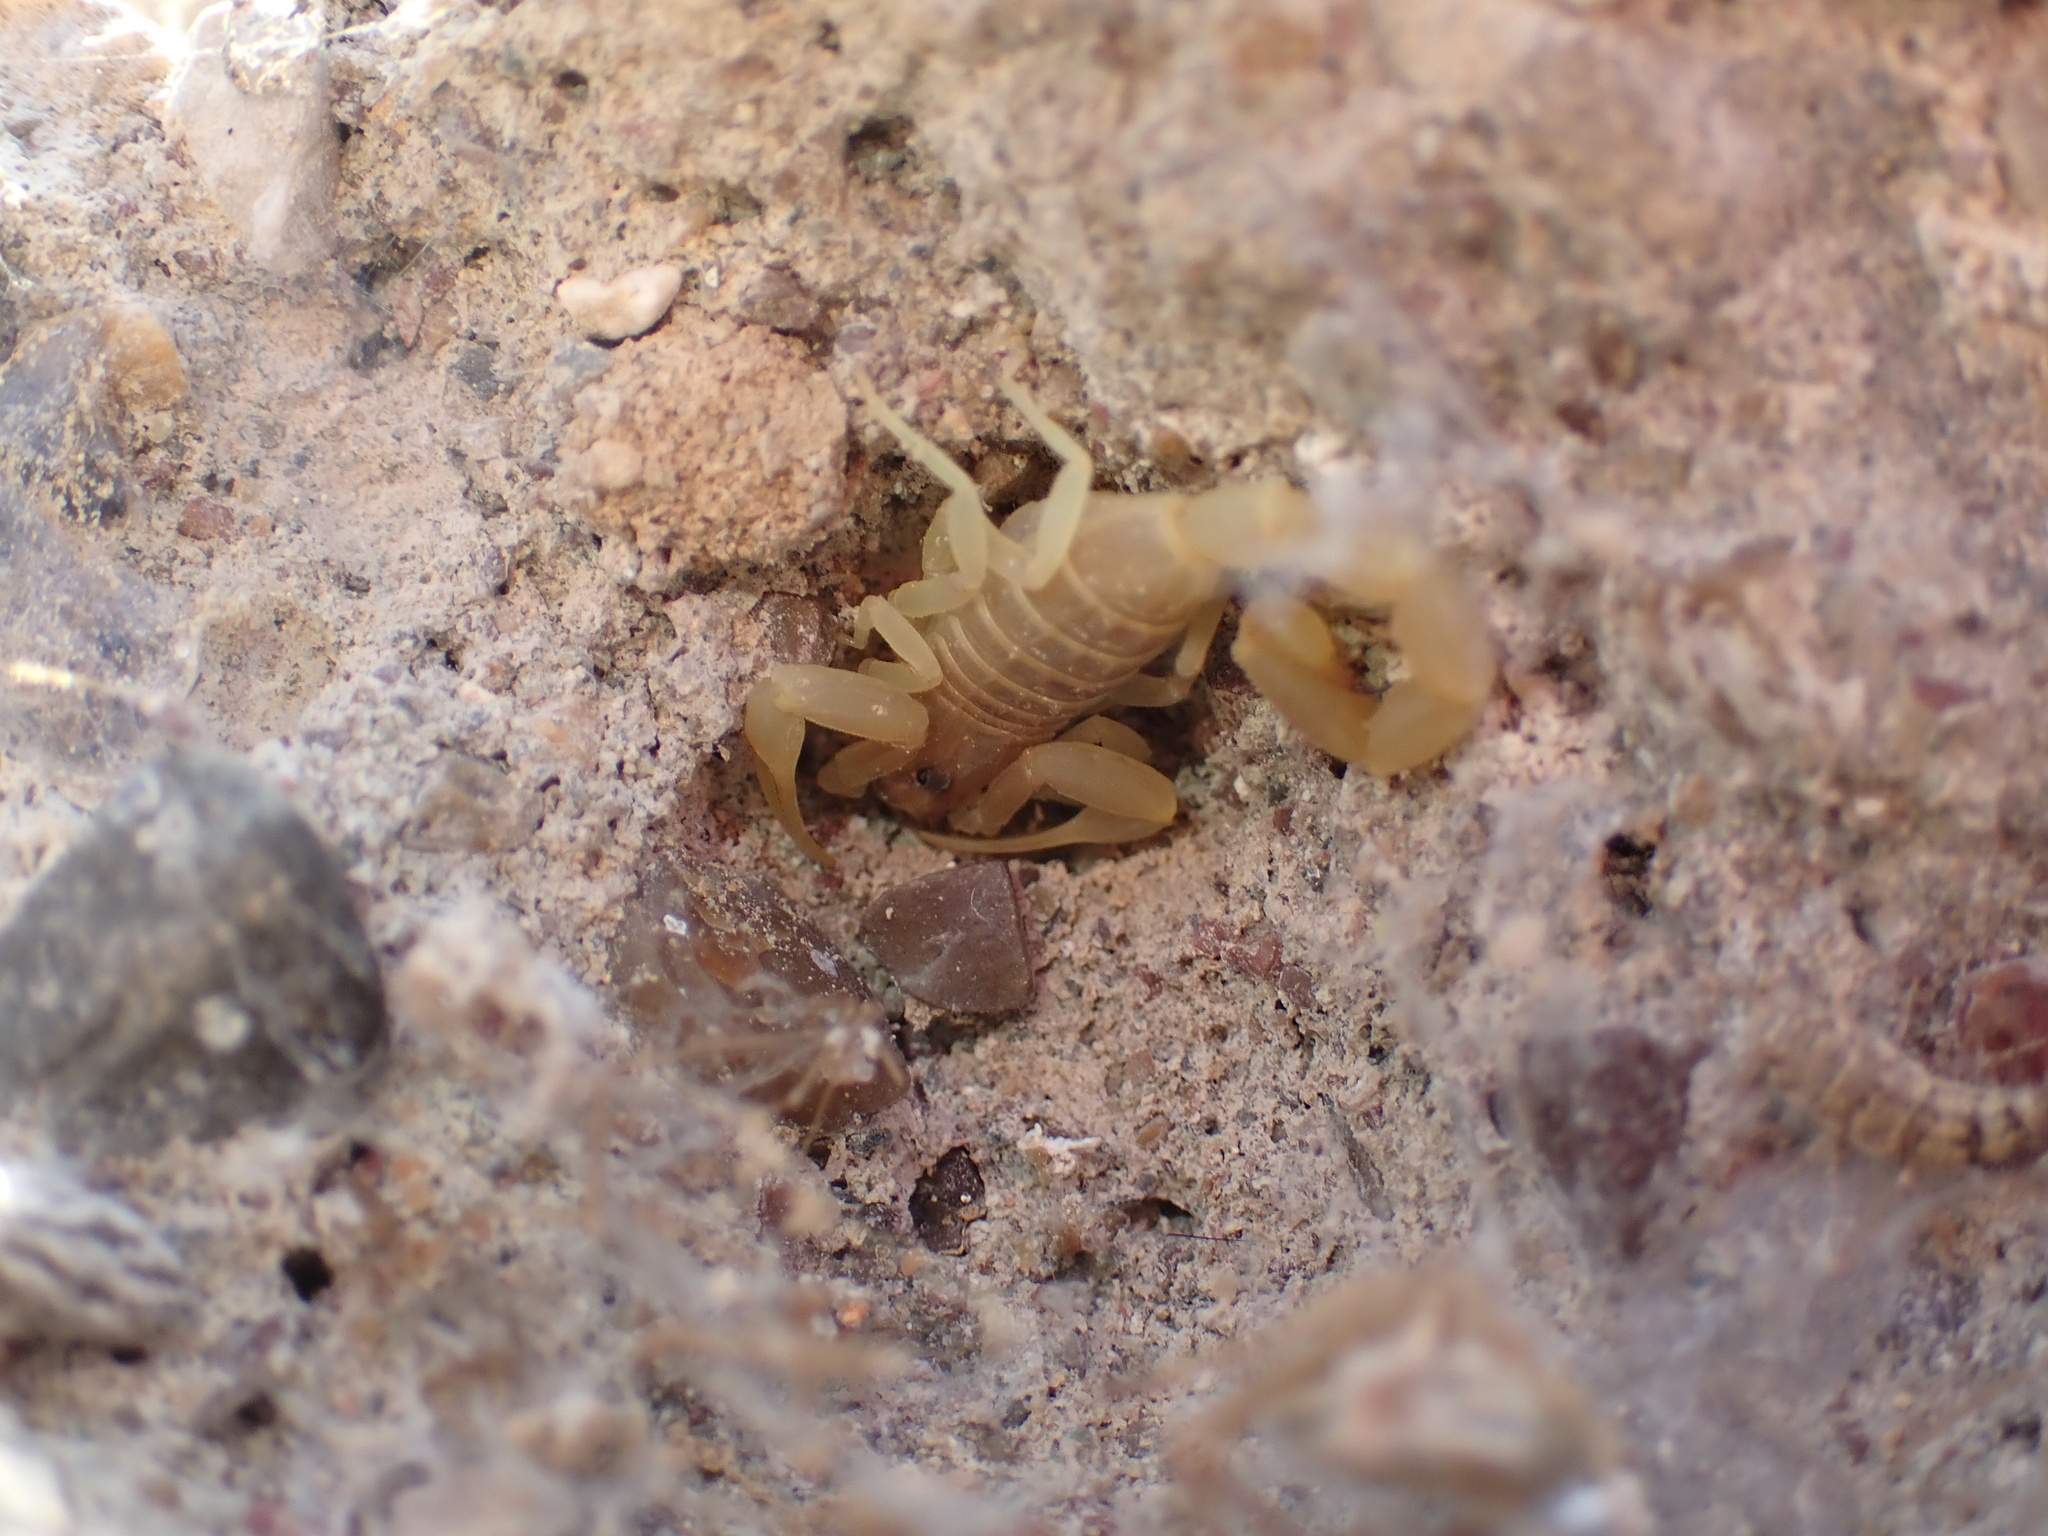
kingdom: Animalia
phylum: Arthropoda
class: Arachnida
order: Scorpiones
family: Buthidae
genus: Compsobuthus
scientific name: Compsobuthus jakesi
